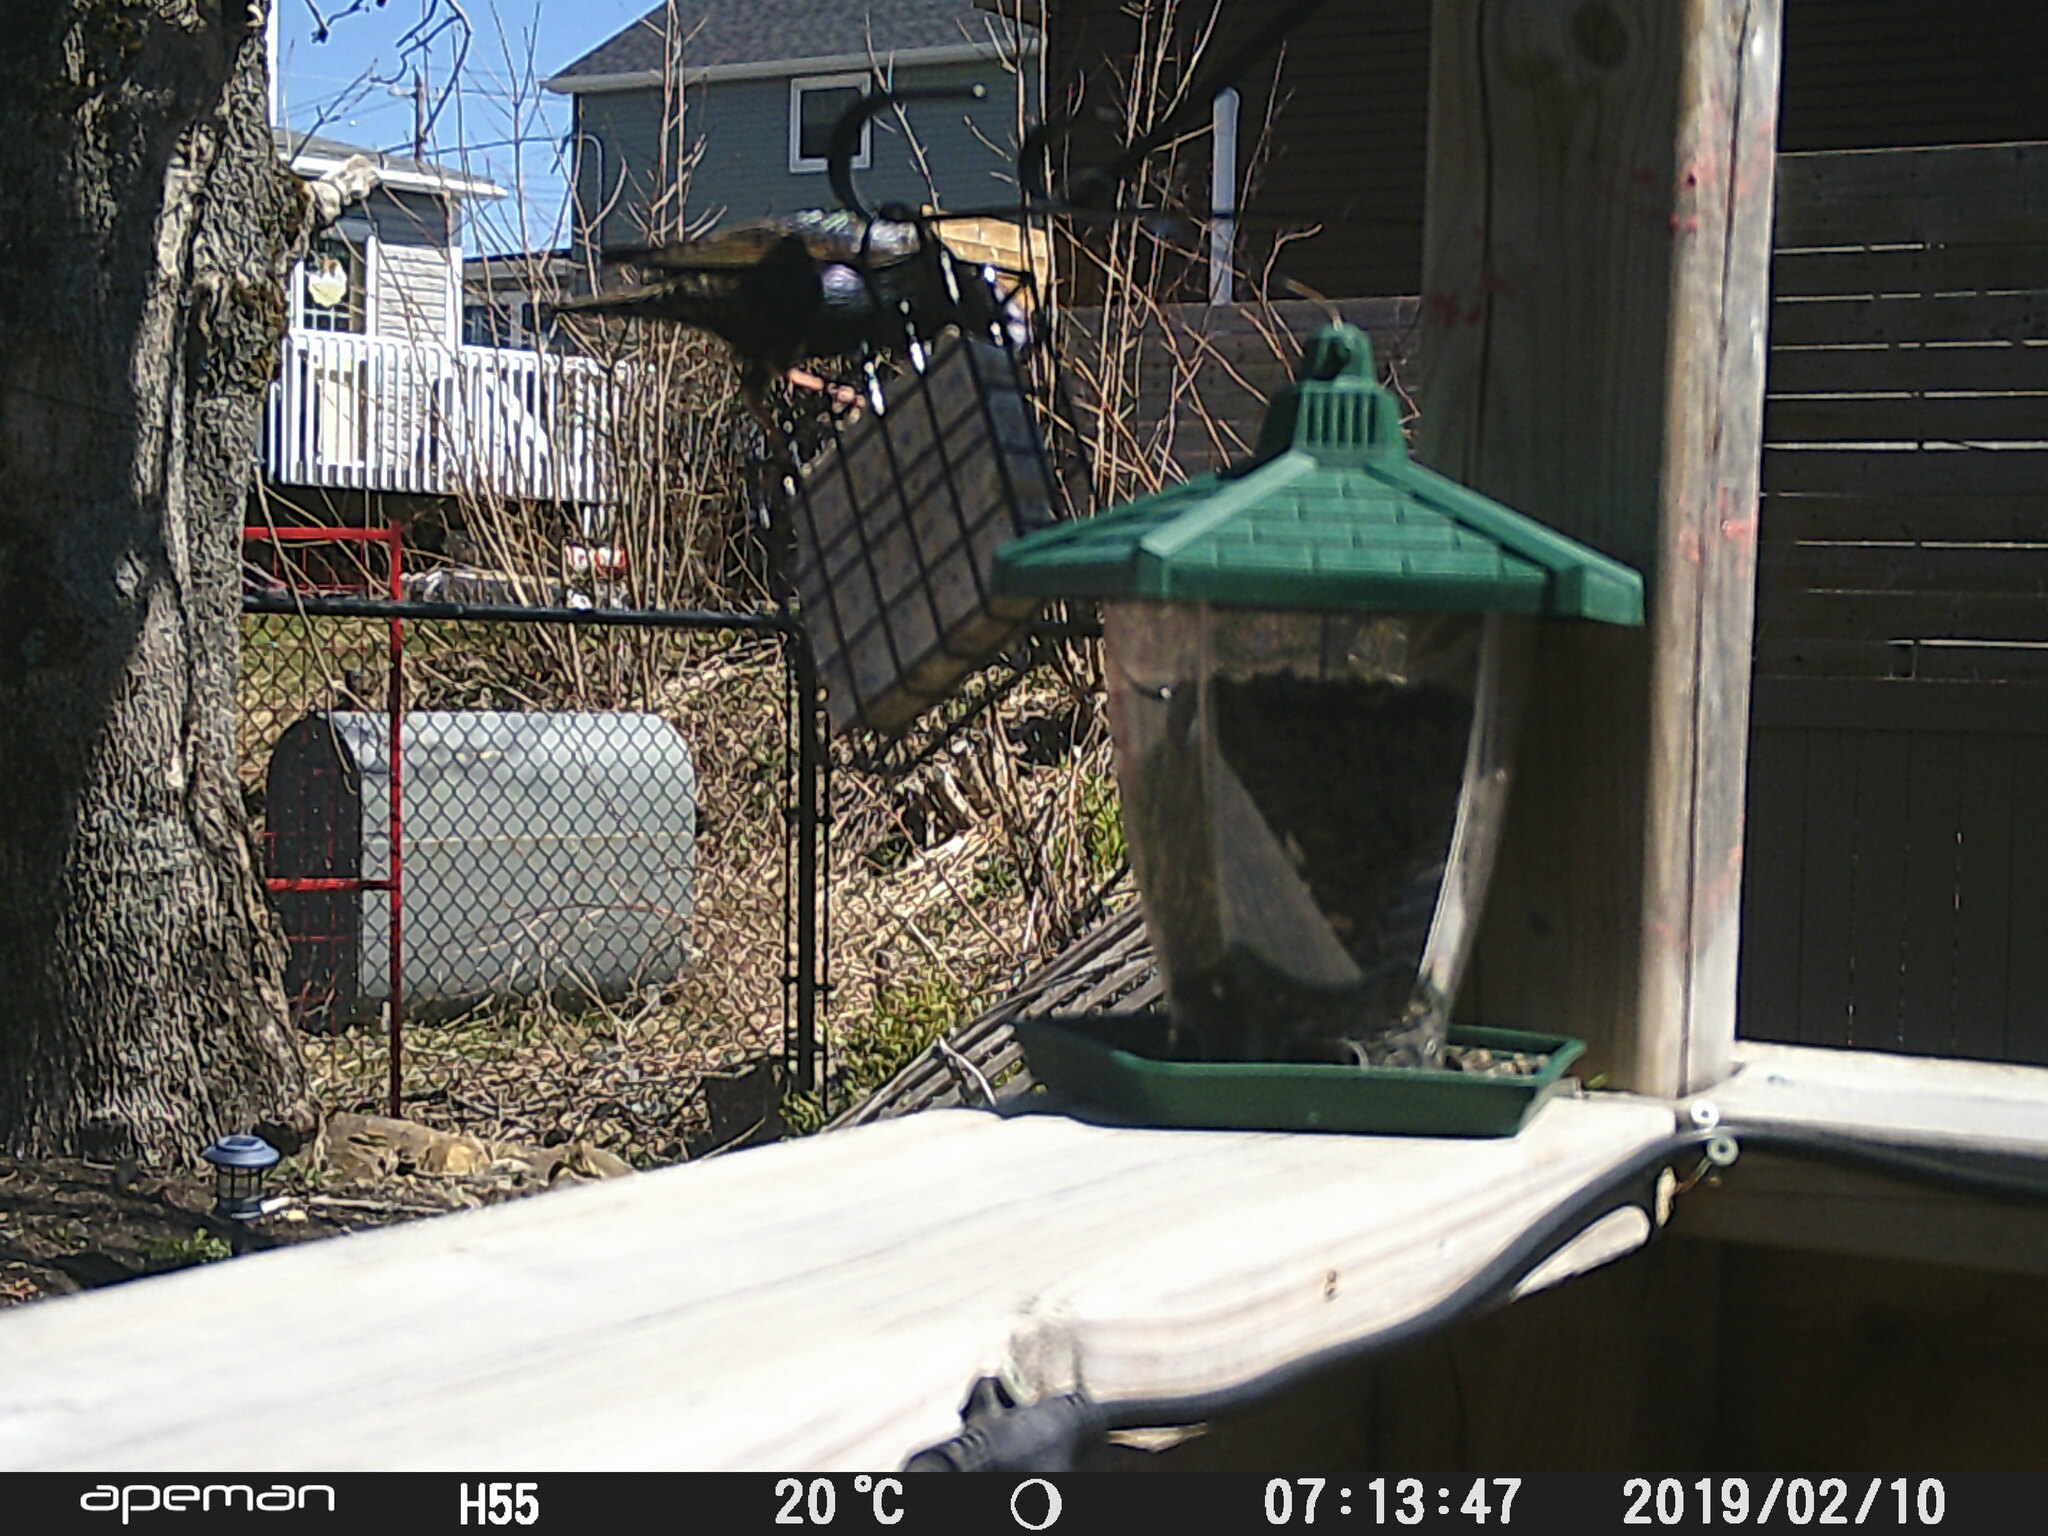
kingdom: Animalia
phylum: Chordata
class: Aves
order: Passeriformes
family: Sturnidae
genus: Sturnus
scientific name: Sturnus vulgaris
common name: Common starling
